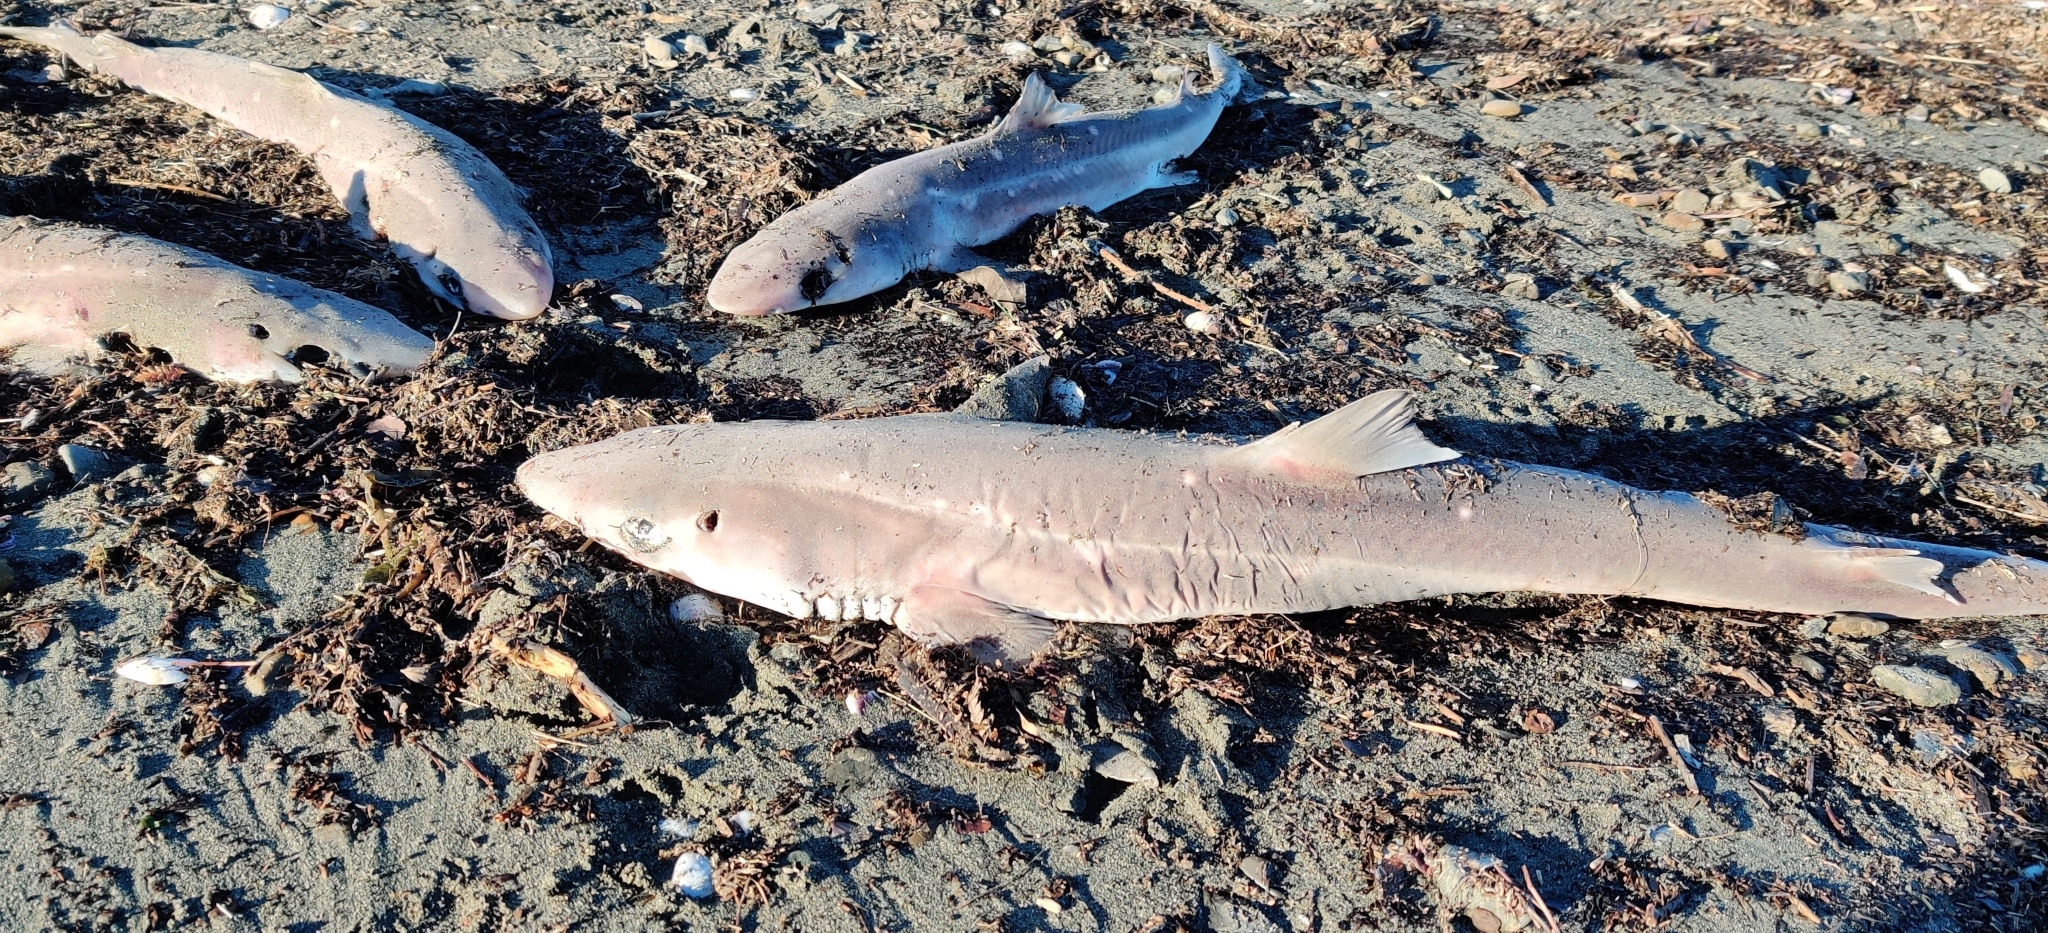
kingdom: Animalia
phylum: Chordata
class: Elasmobranchii
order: Squaliformes
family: Squalidae
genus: Squalus
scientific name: Squalus acanthias
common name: Spurdog
